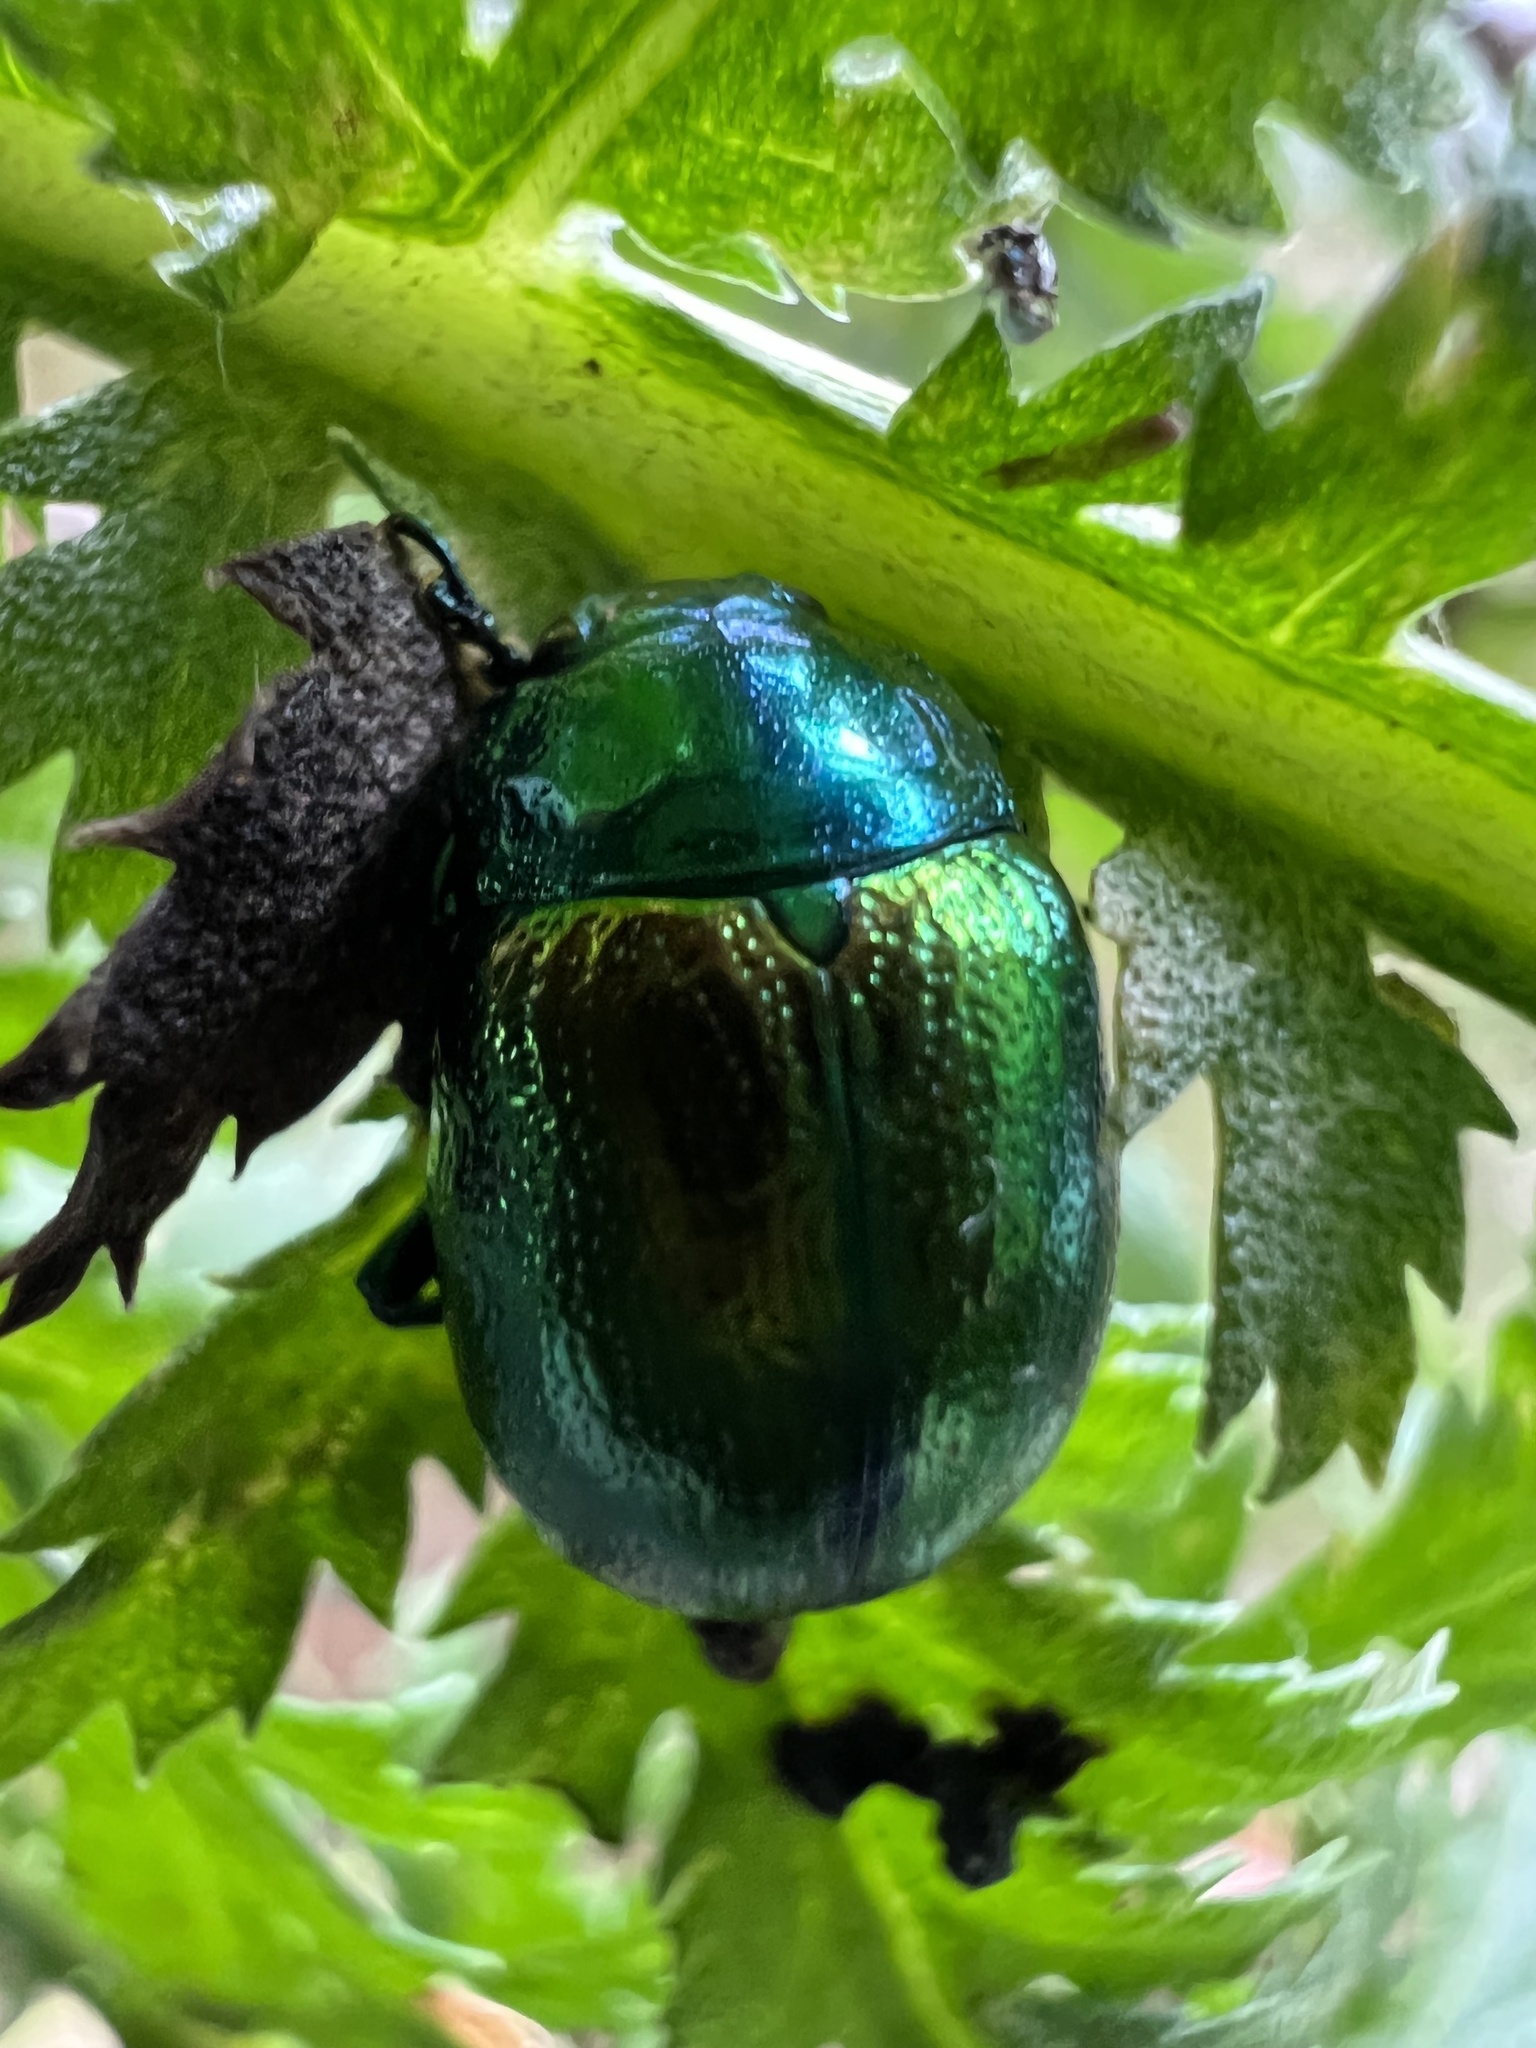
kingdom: Animalia
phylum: Arthropoda
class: Insecta
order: Coleoptera
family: Chrysomelidae
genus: Chrysolina
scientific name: Chrysolina graminis
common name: Tansey beetle
